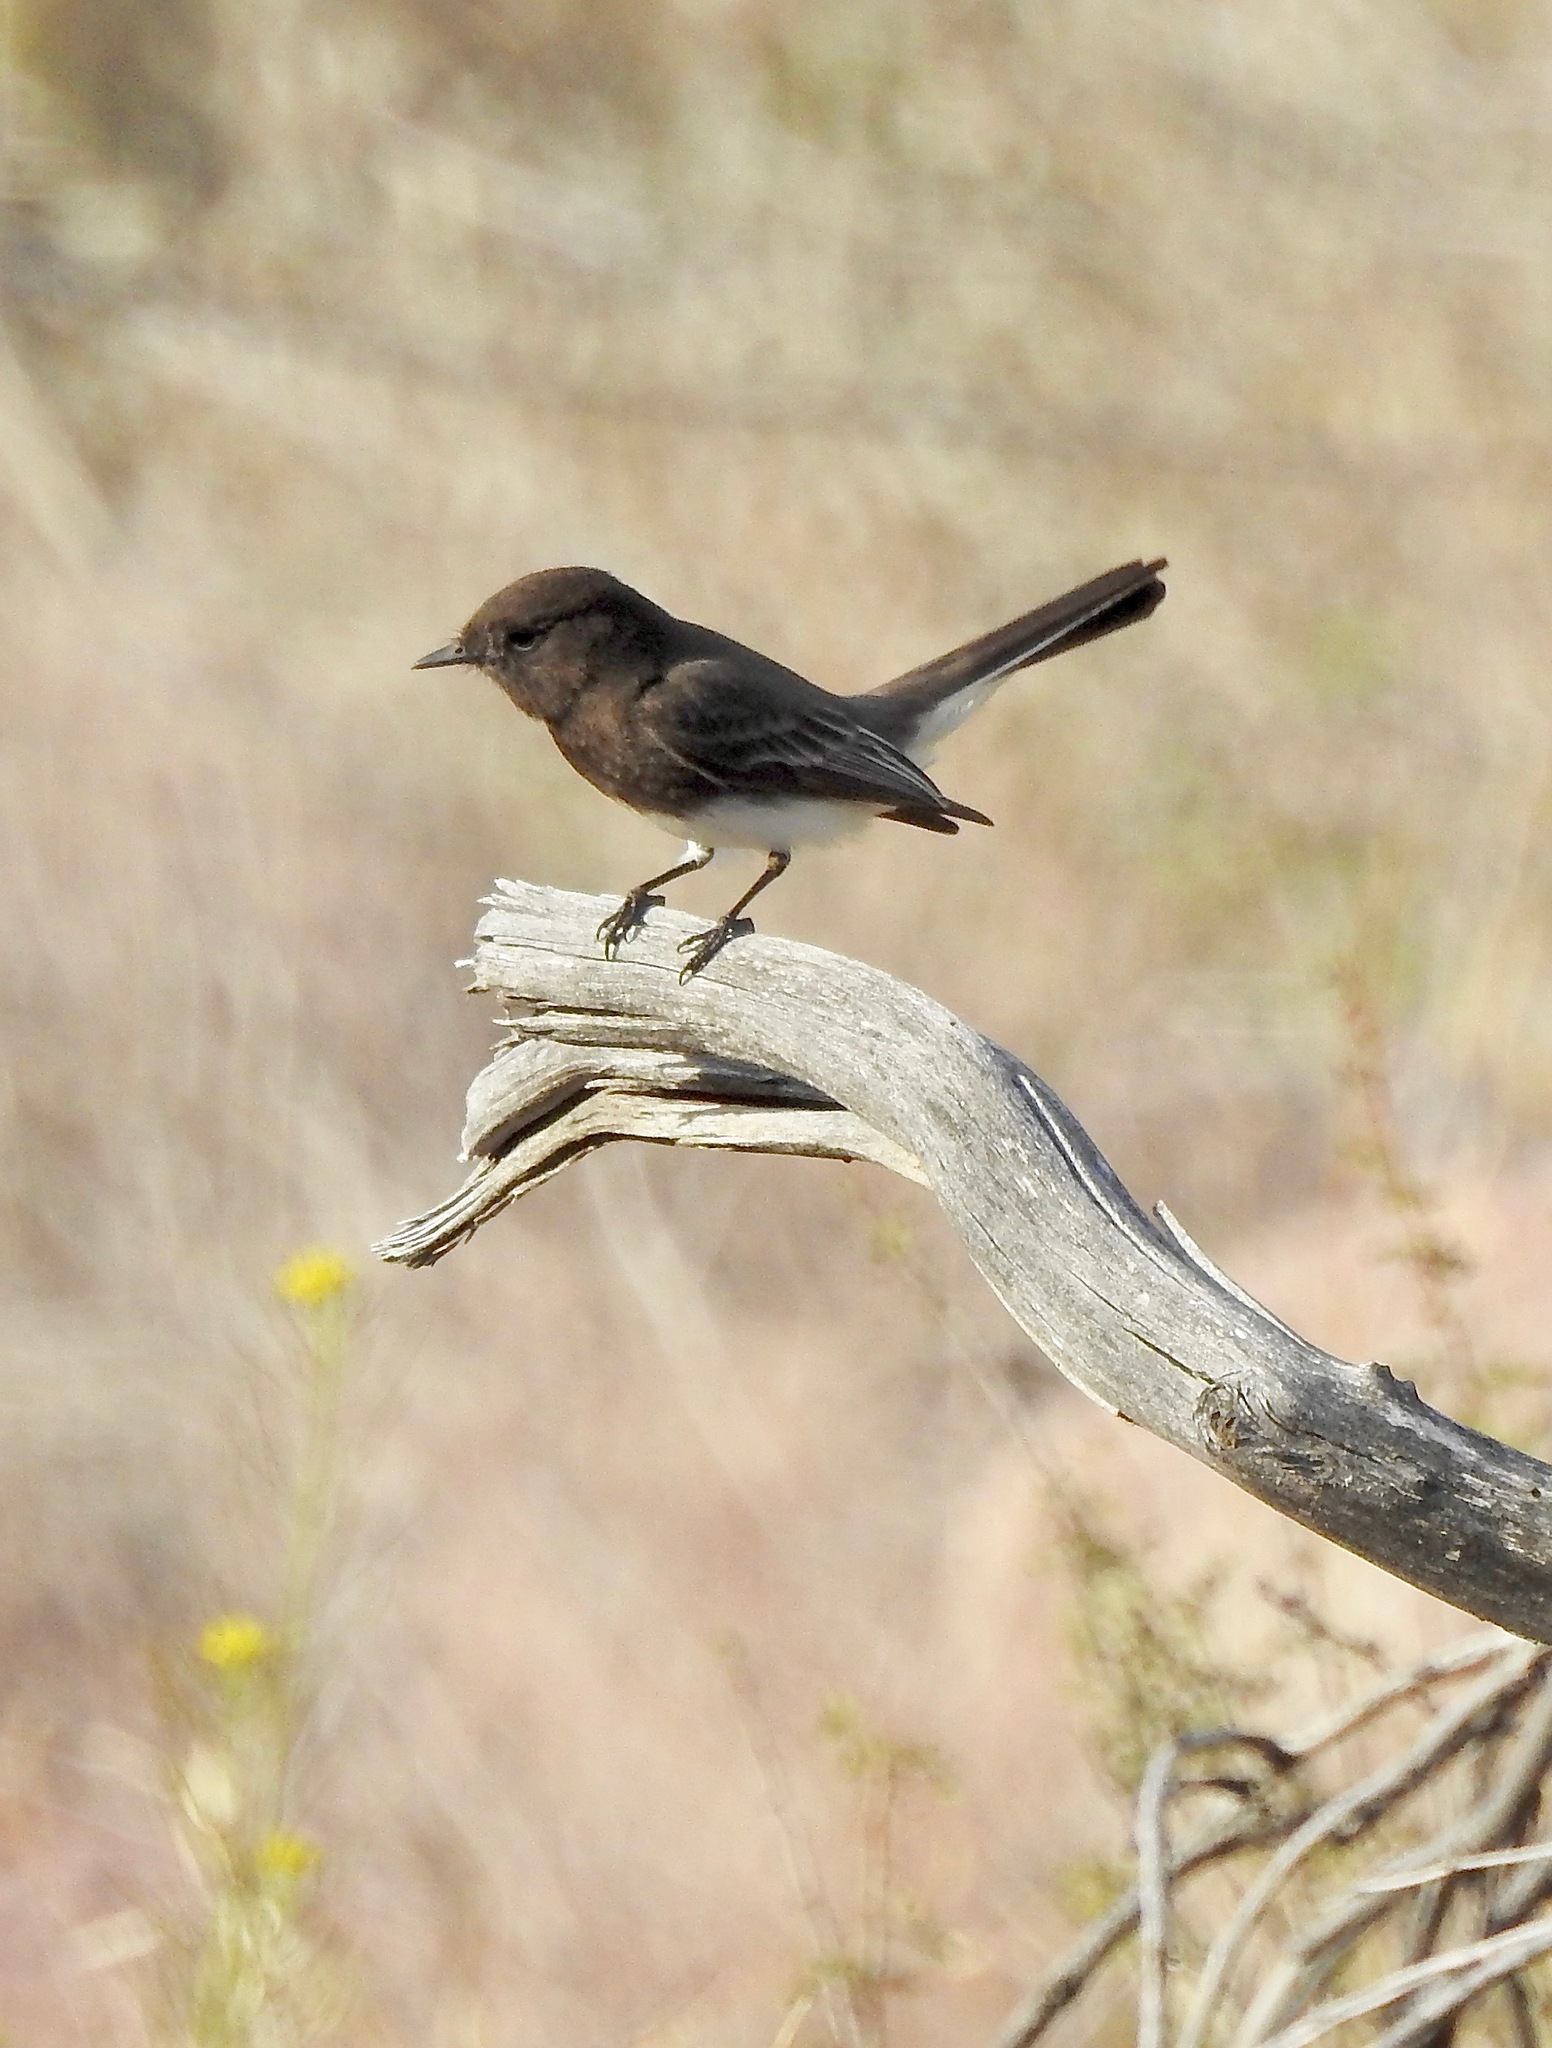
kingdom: Animalia
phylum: Chordata
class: Aves
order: Passeriformes
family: Tyrannidae
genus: Sayornis
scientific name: Sayornis nigricans
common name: Black phoebe
